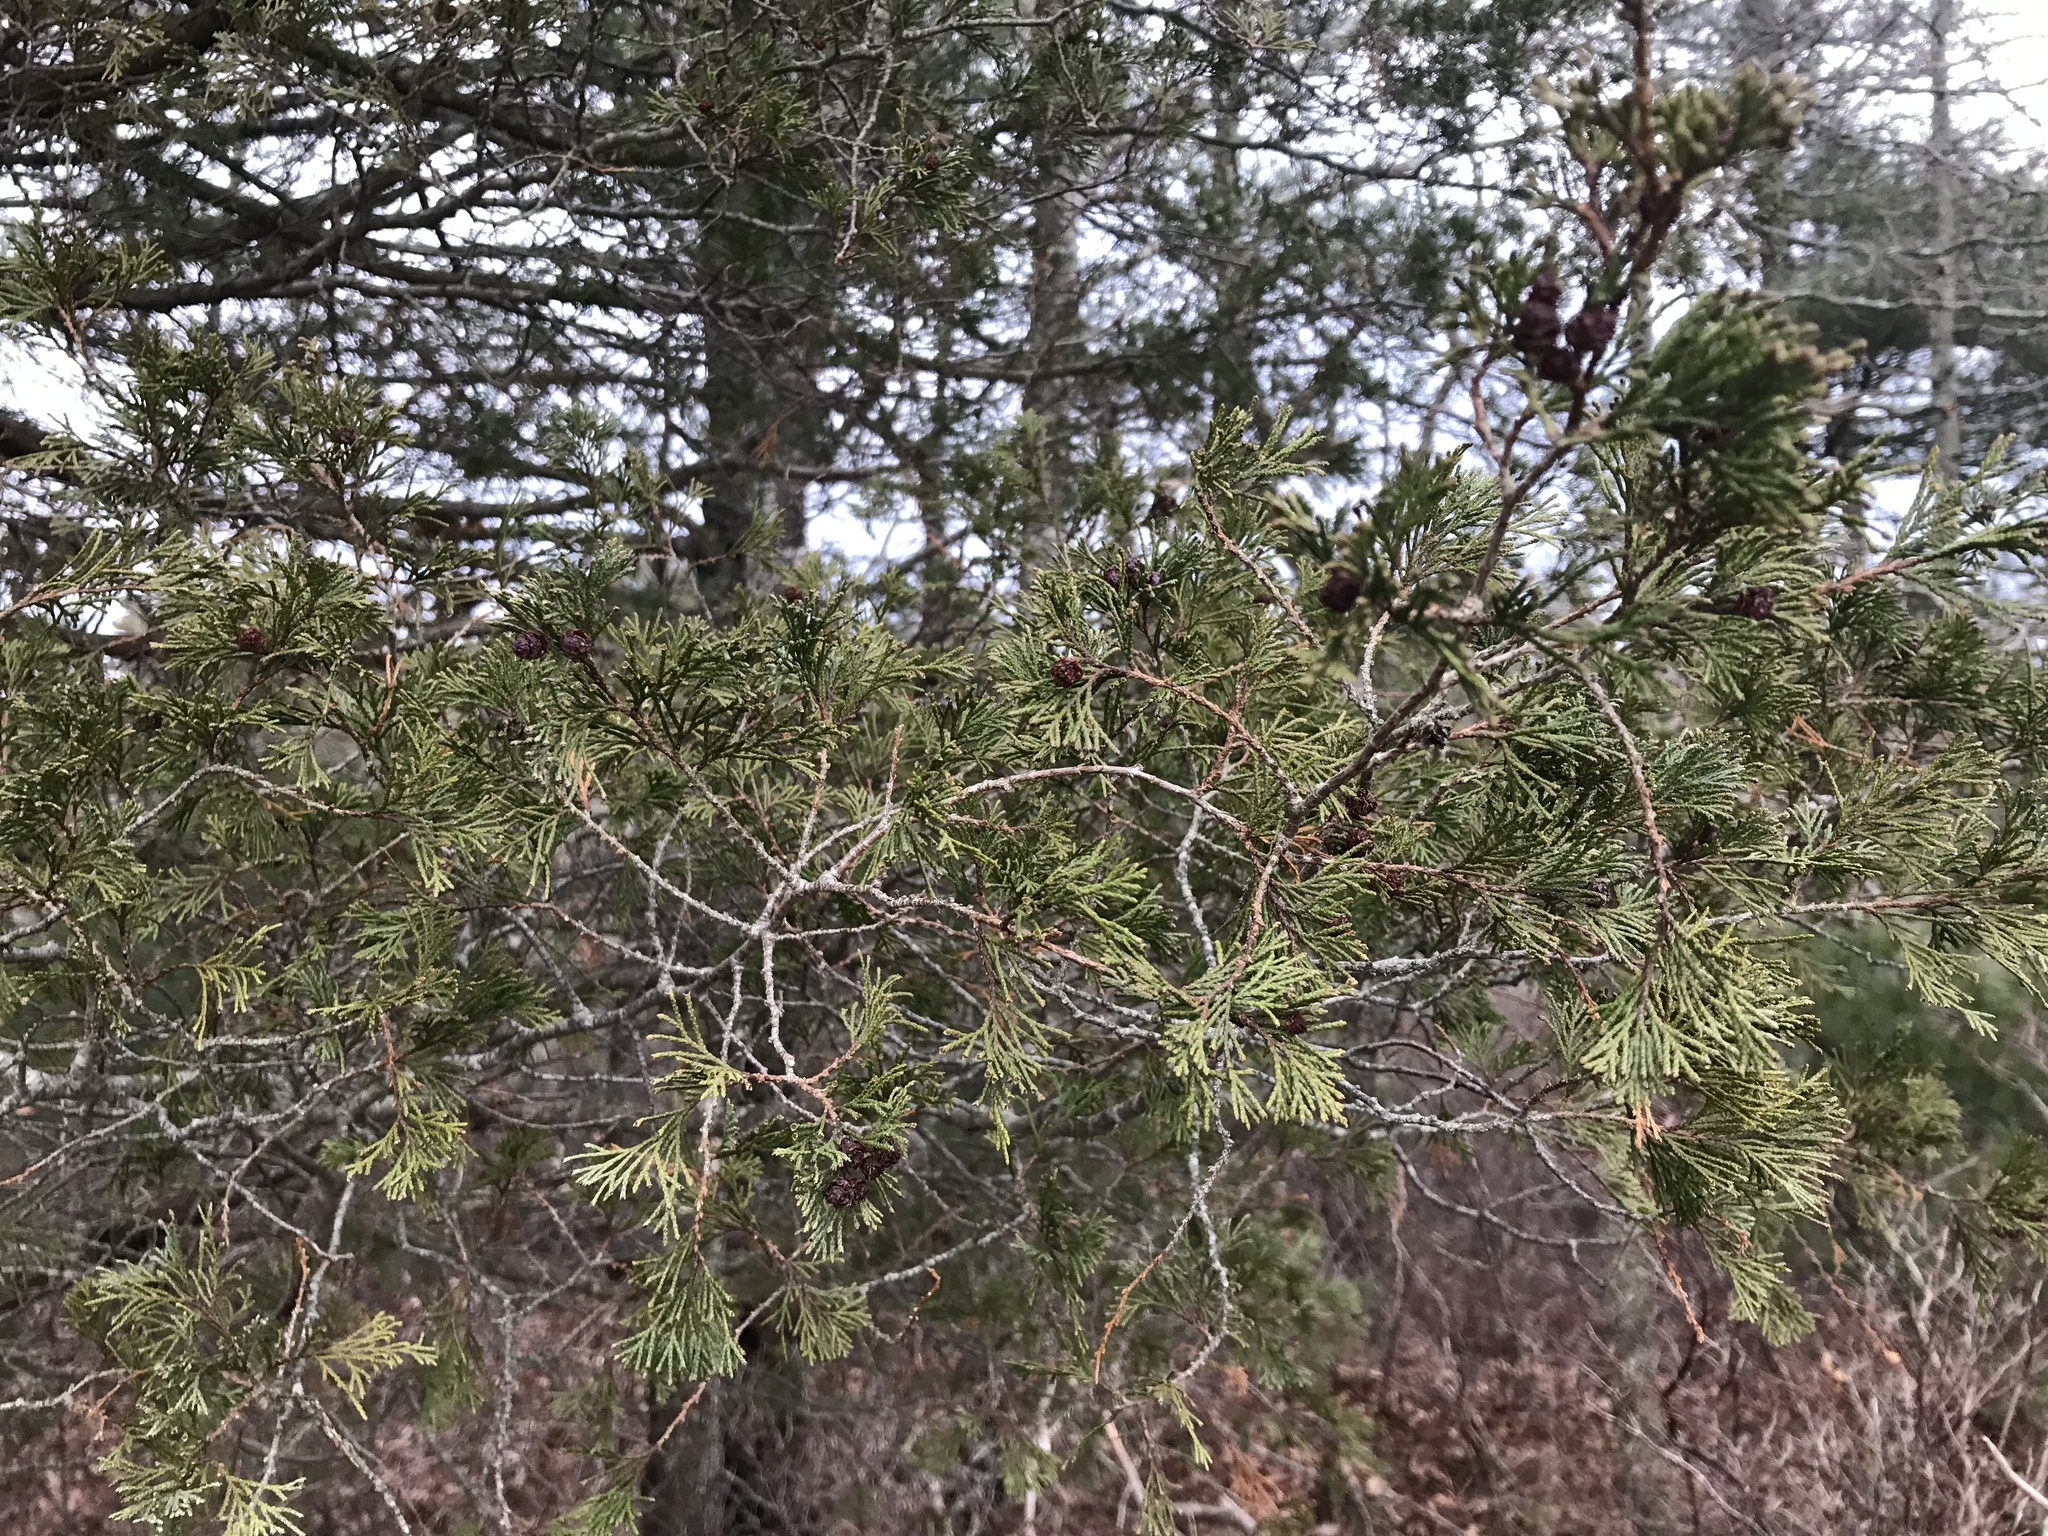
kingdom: Plantae
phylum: Tracheophyta
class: Pinopsida
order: Pinales
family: Cupressaceae
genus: Chamaecyparis
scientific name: Chamaecyparis thyoides
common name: Atlantic white cedar
